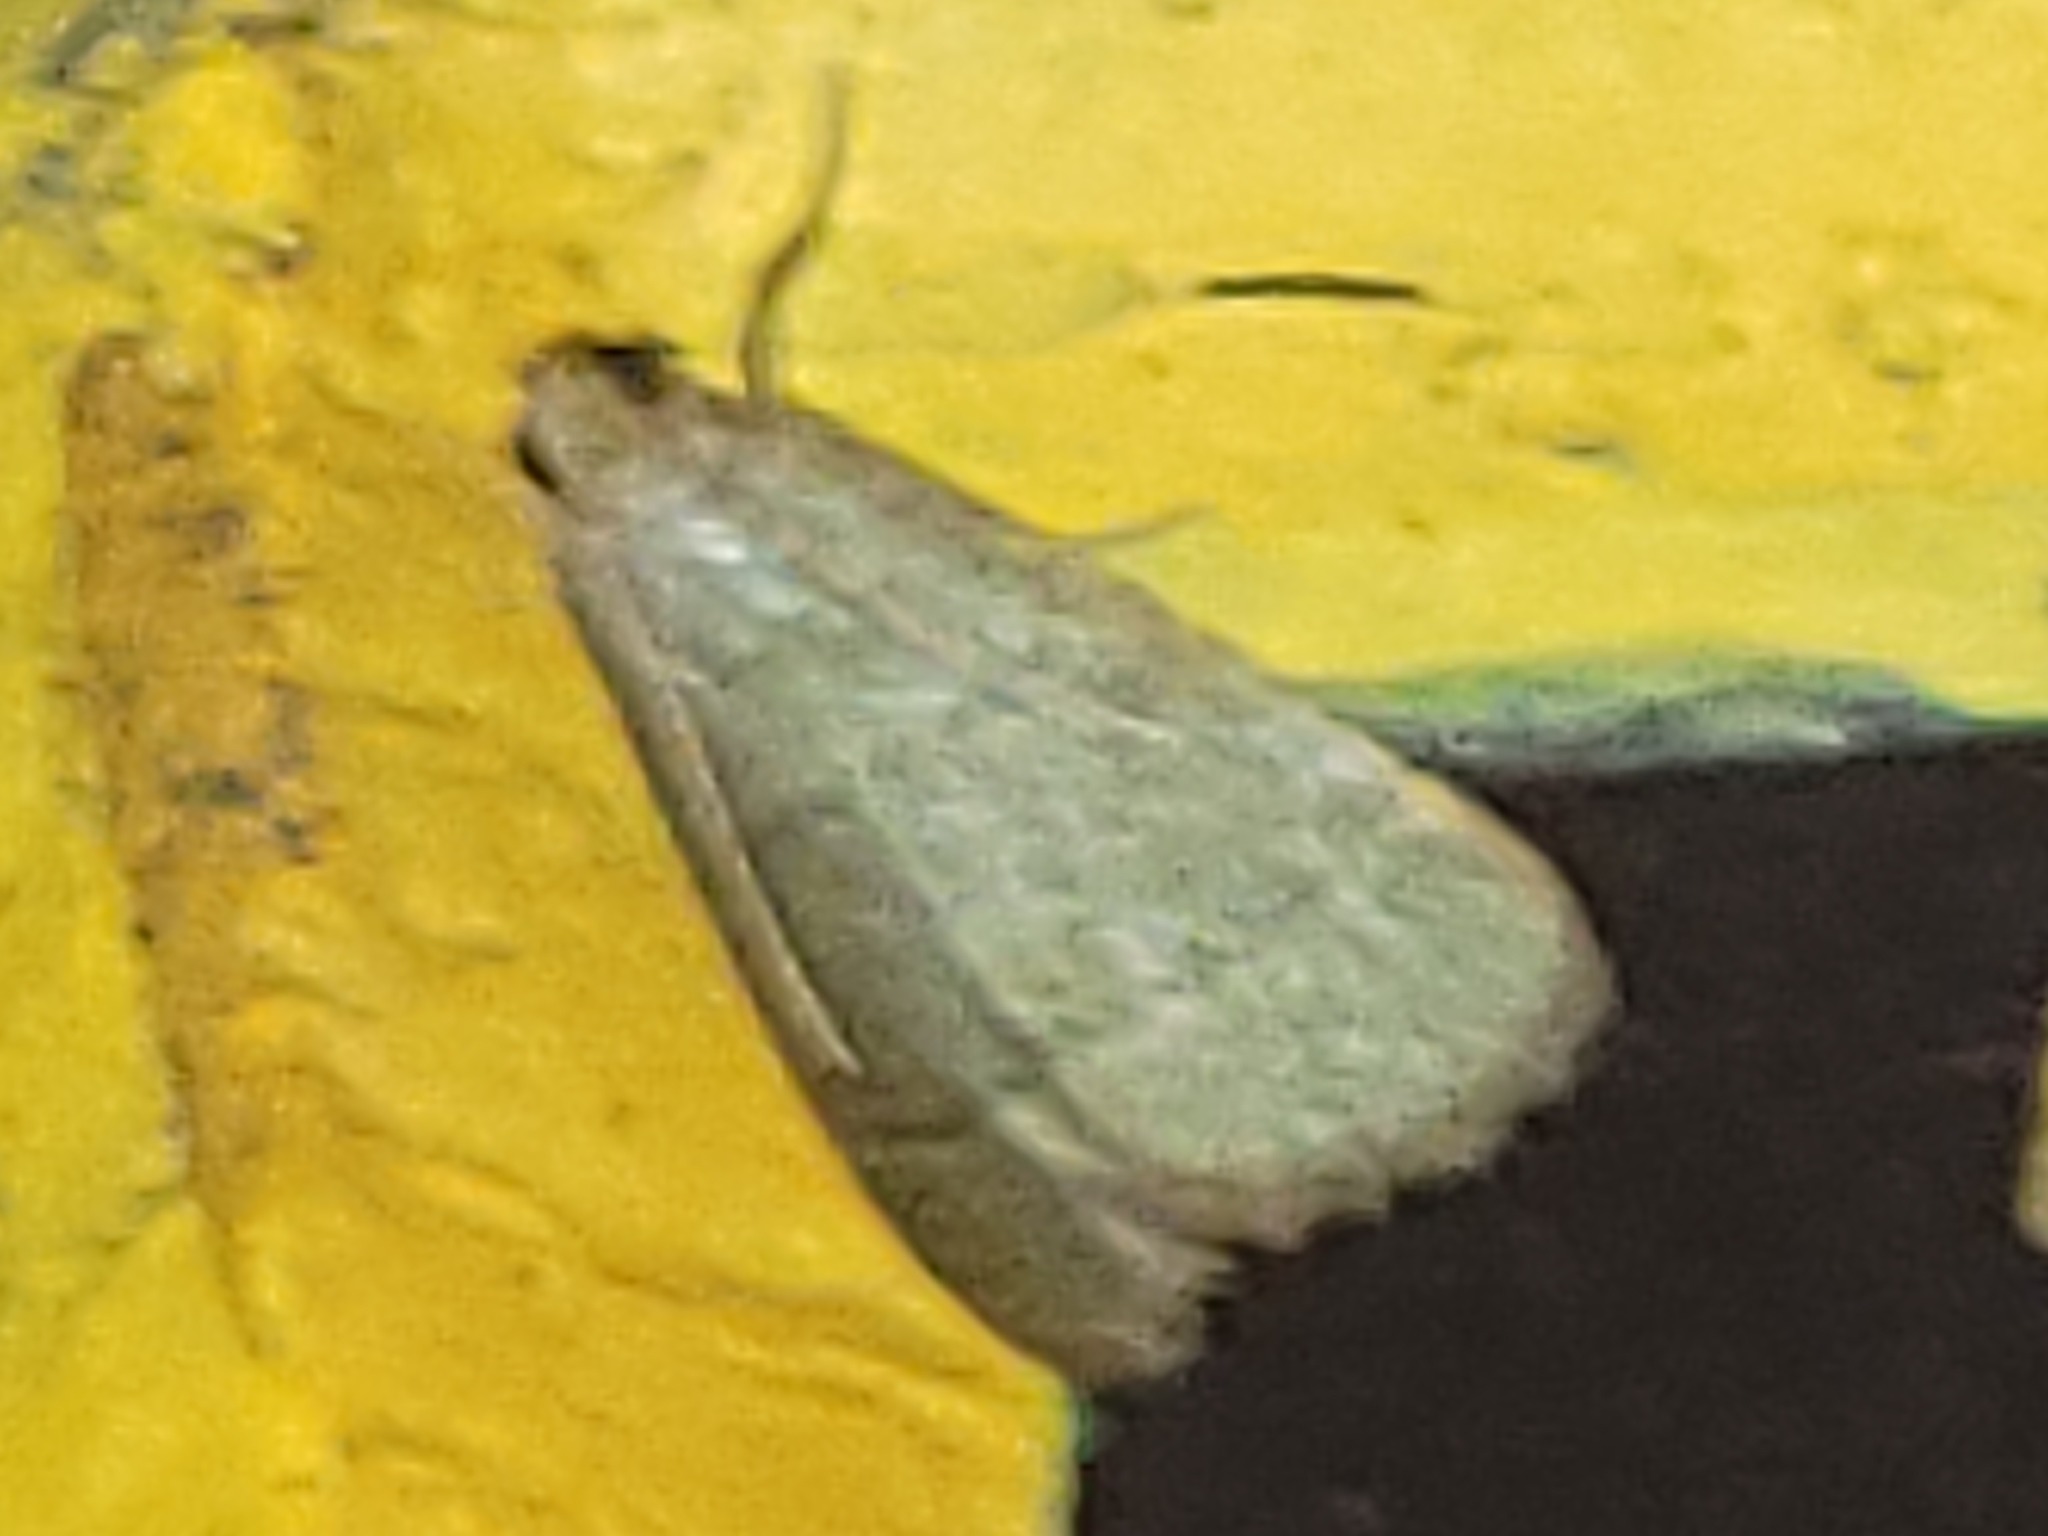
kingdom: Animalia
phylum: Arthropoda
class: Insecta
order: Lepidoptera
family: Pyralidae
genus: Arta
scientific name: Arta olivalis
